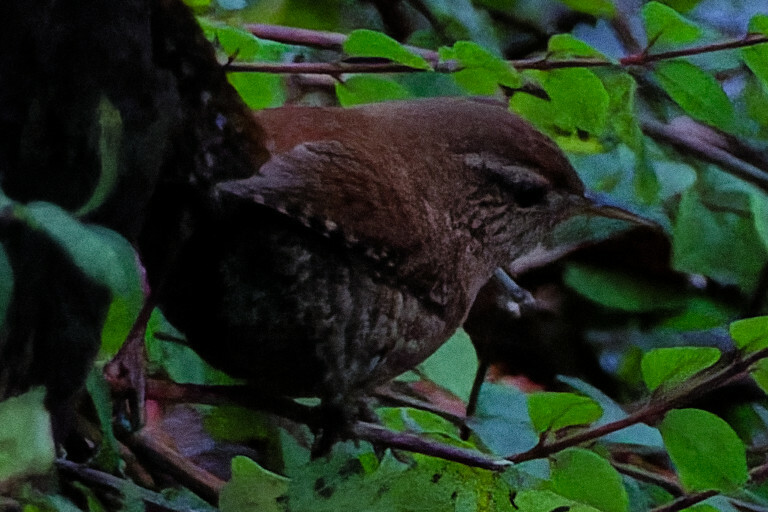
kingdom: Animalia
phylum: Chordata
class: Aves
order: Passeriformes
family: Troglodytidae
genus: Troglodytes
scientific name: Troglodytes troglodytes
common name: Eurasian wren
